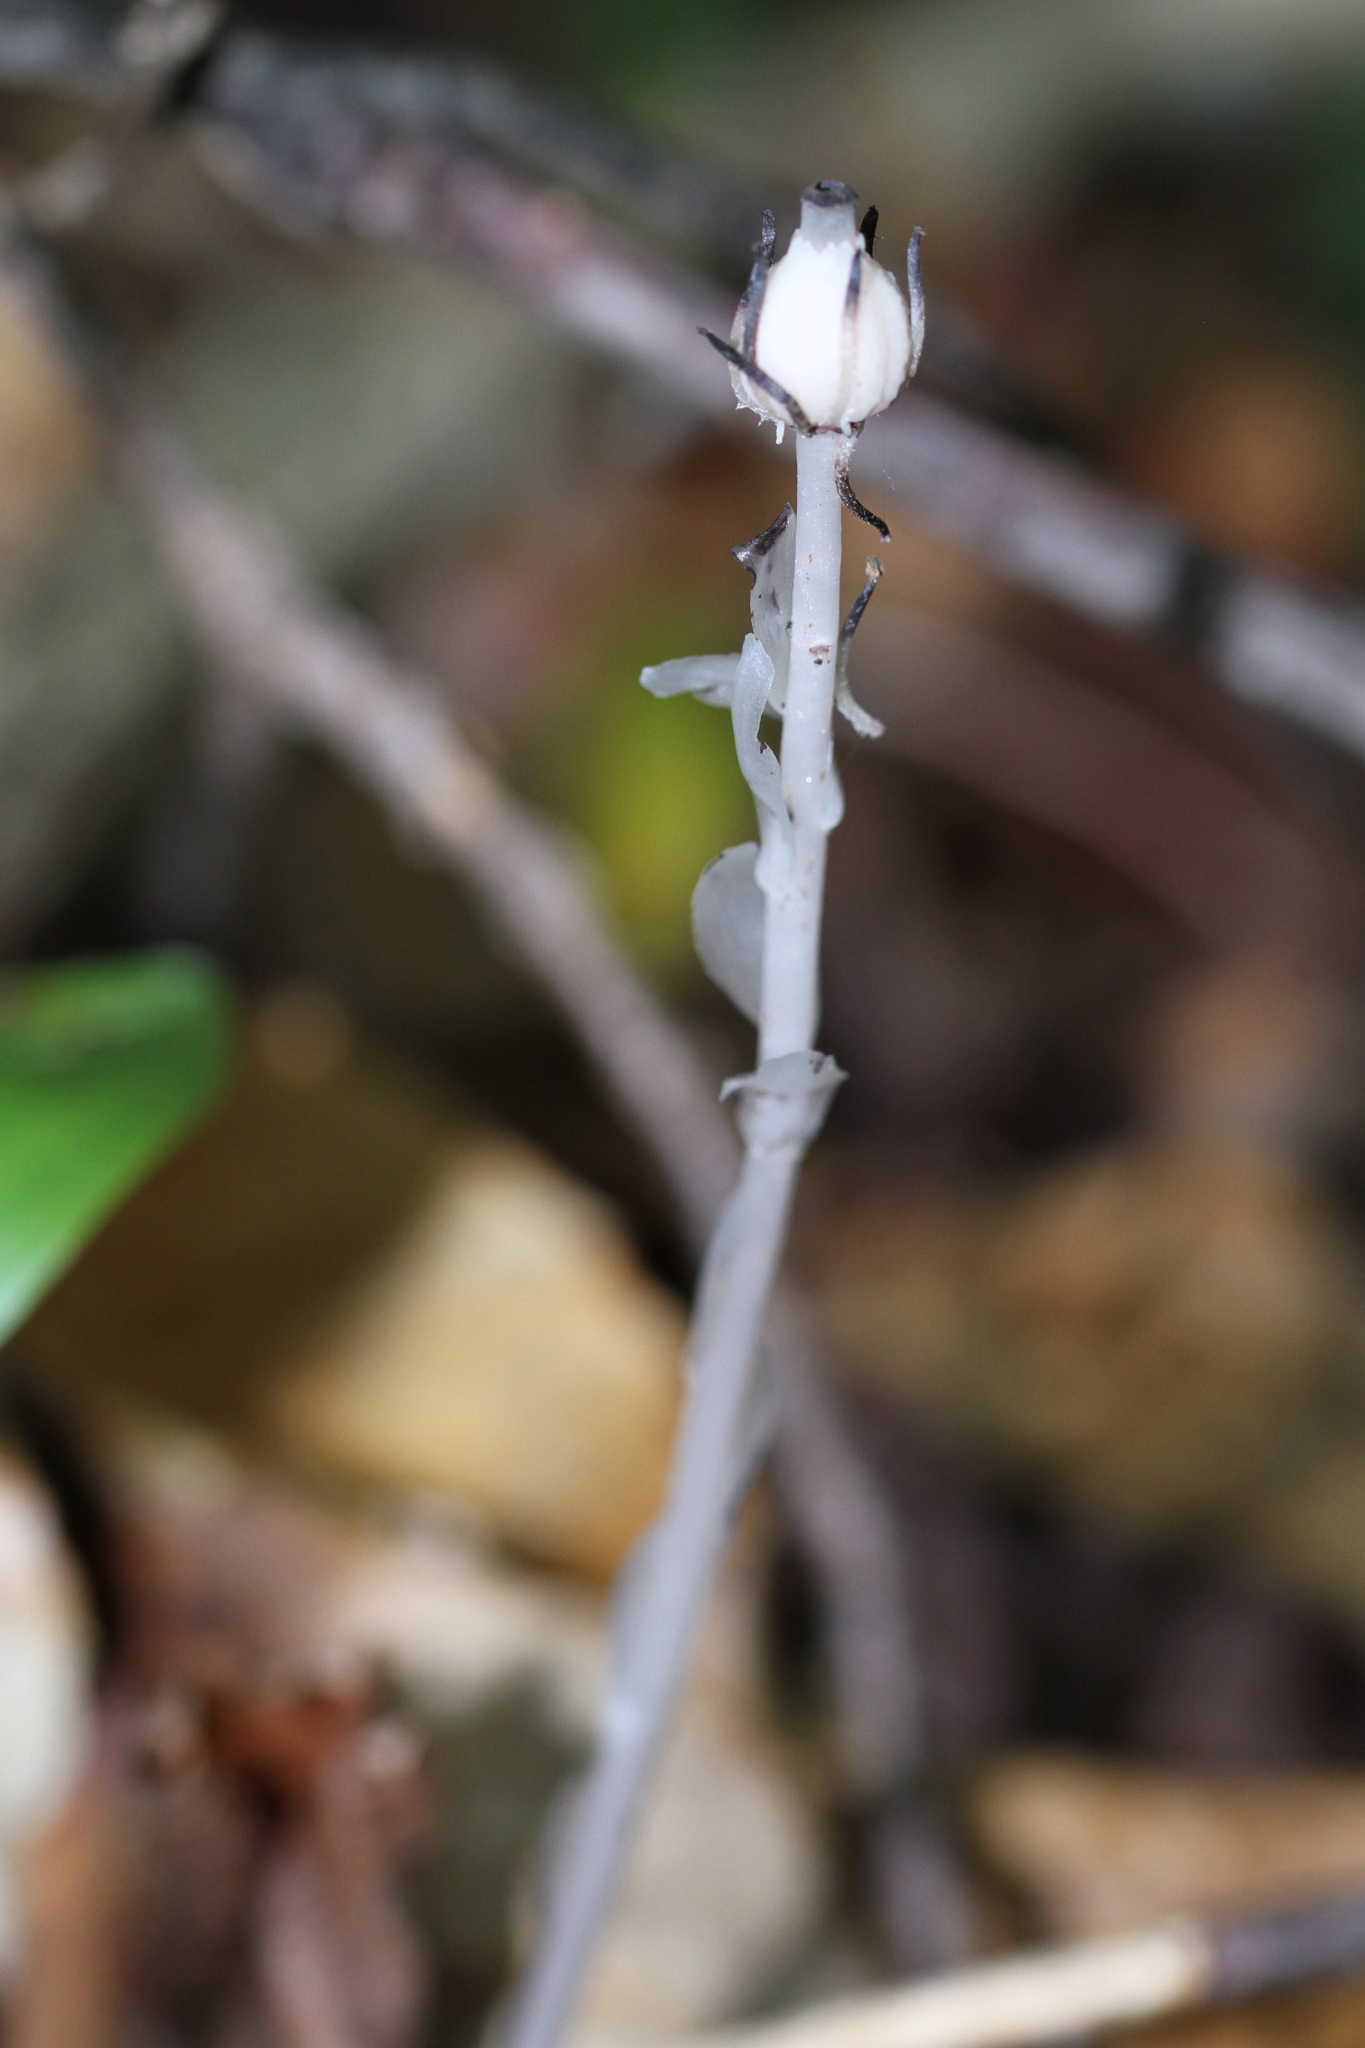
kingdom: Plantae
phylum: Tracheophyta
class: Magnoliopsida
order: Ericales
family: Ericaceae
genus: Monotropa
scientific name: Monotropa uniflora
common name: Convulsion root
